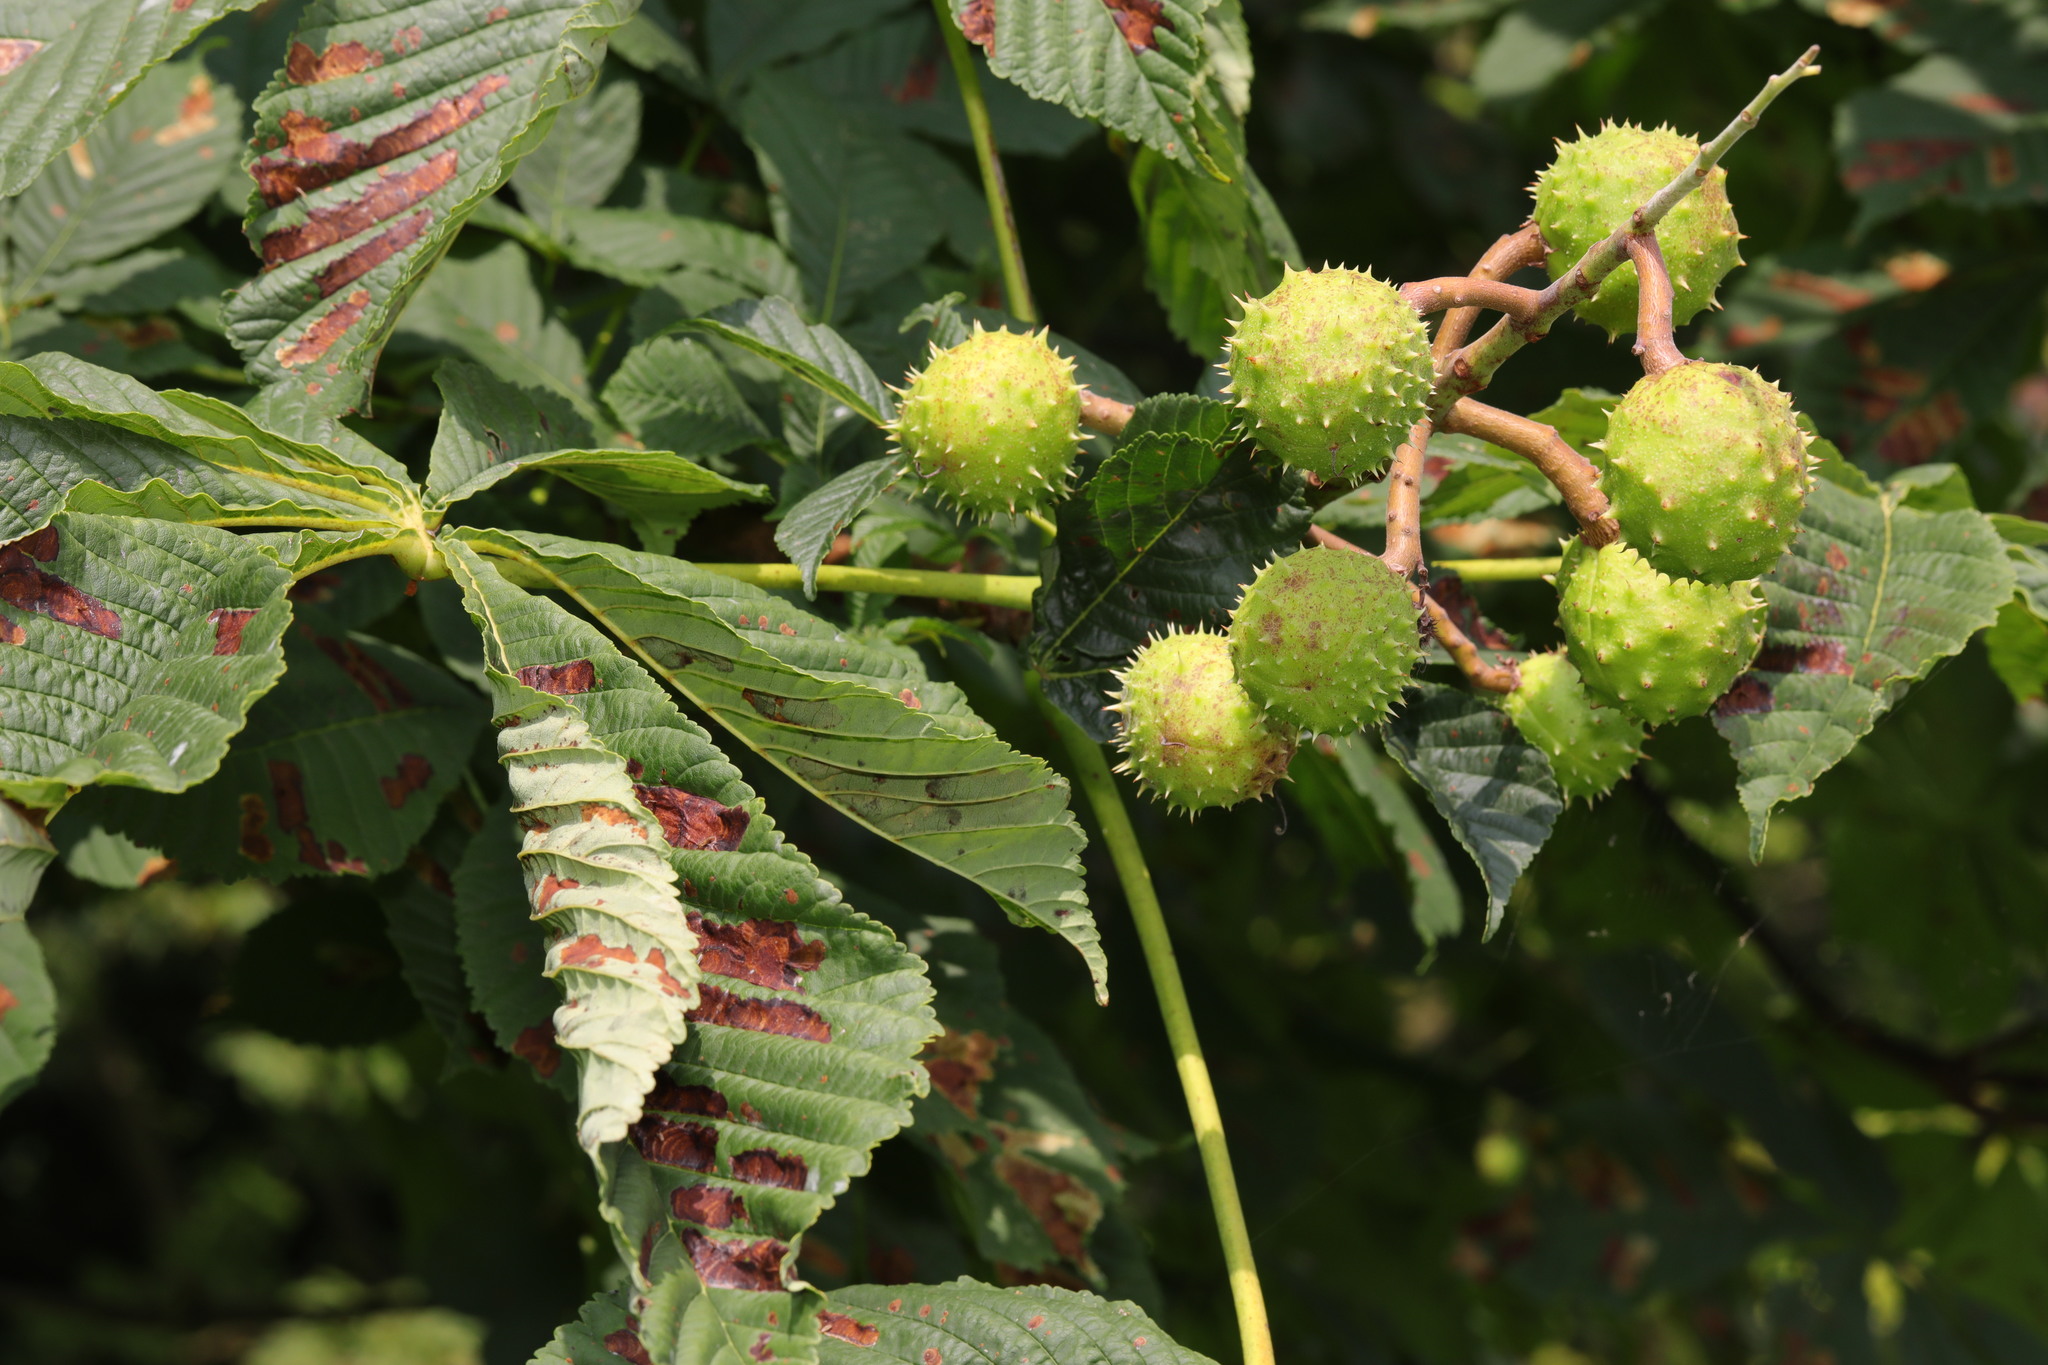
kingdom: Plantae
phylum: Tracheophyta
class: Magnoliopsida
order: Sapindales
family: Sapindaceae
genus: Aesculus
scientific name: Aesculus hippocastanum
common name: Horse-chestnut
